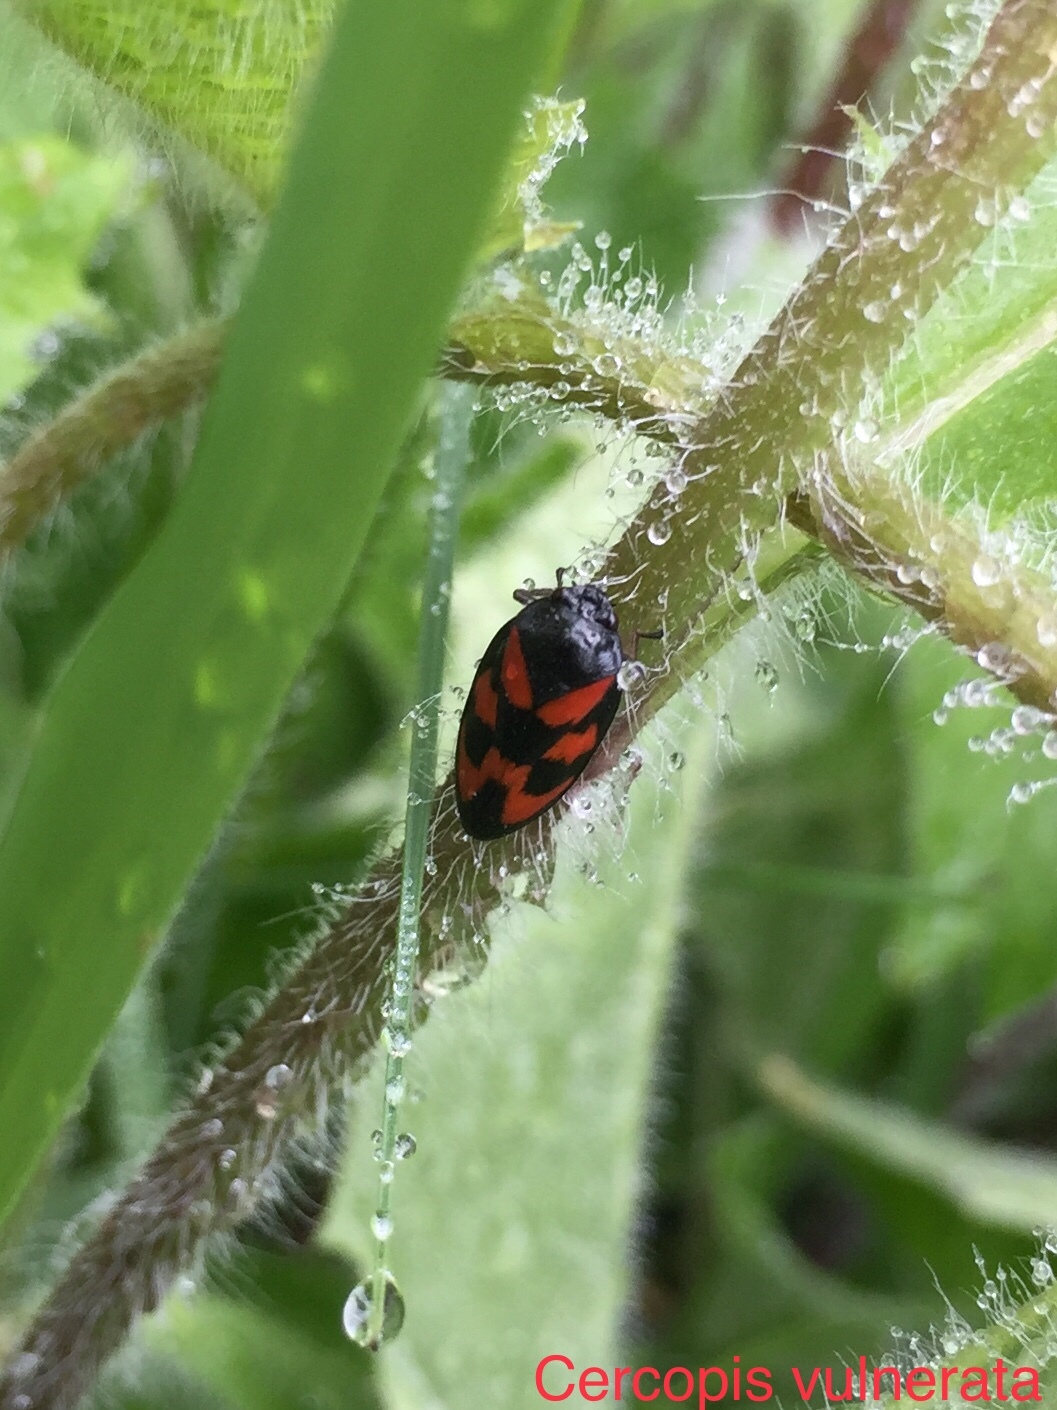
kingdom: Animalia
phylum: Arthropoda
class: Insecta
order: Hemiptera
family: Cercopidae
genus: Cercopis
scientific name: Cercopis vulnerata
